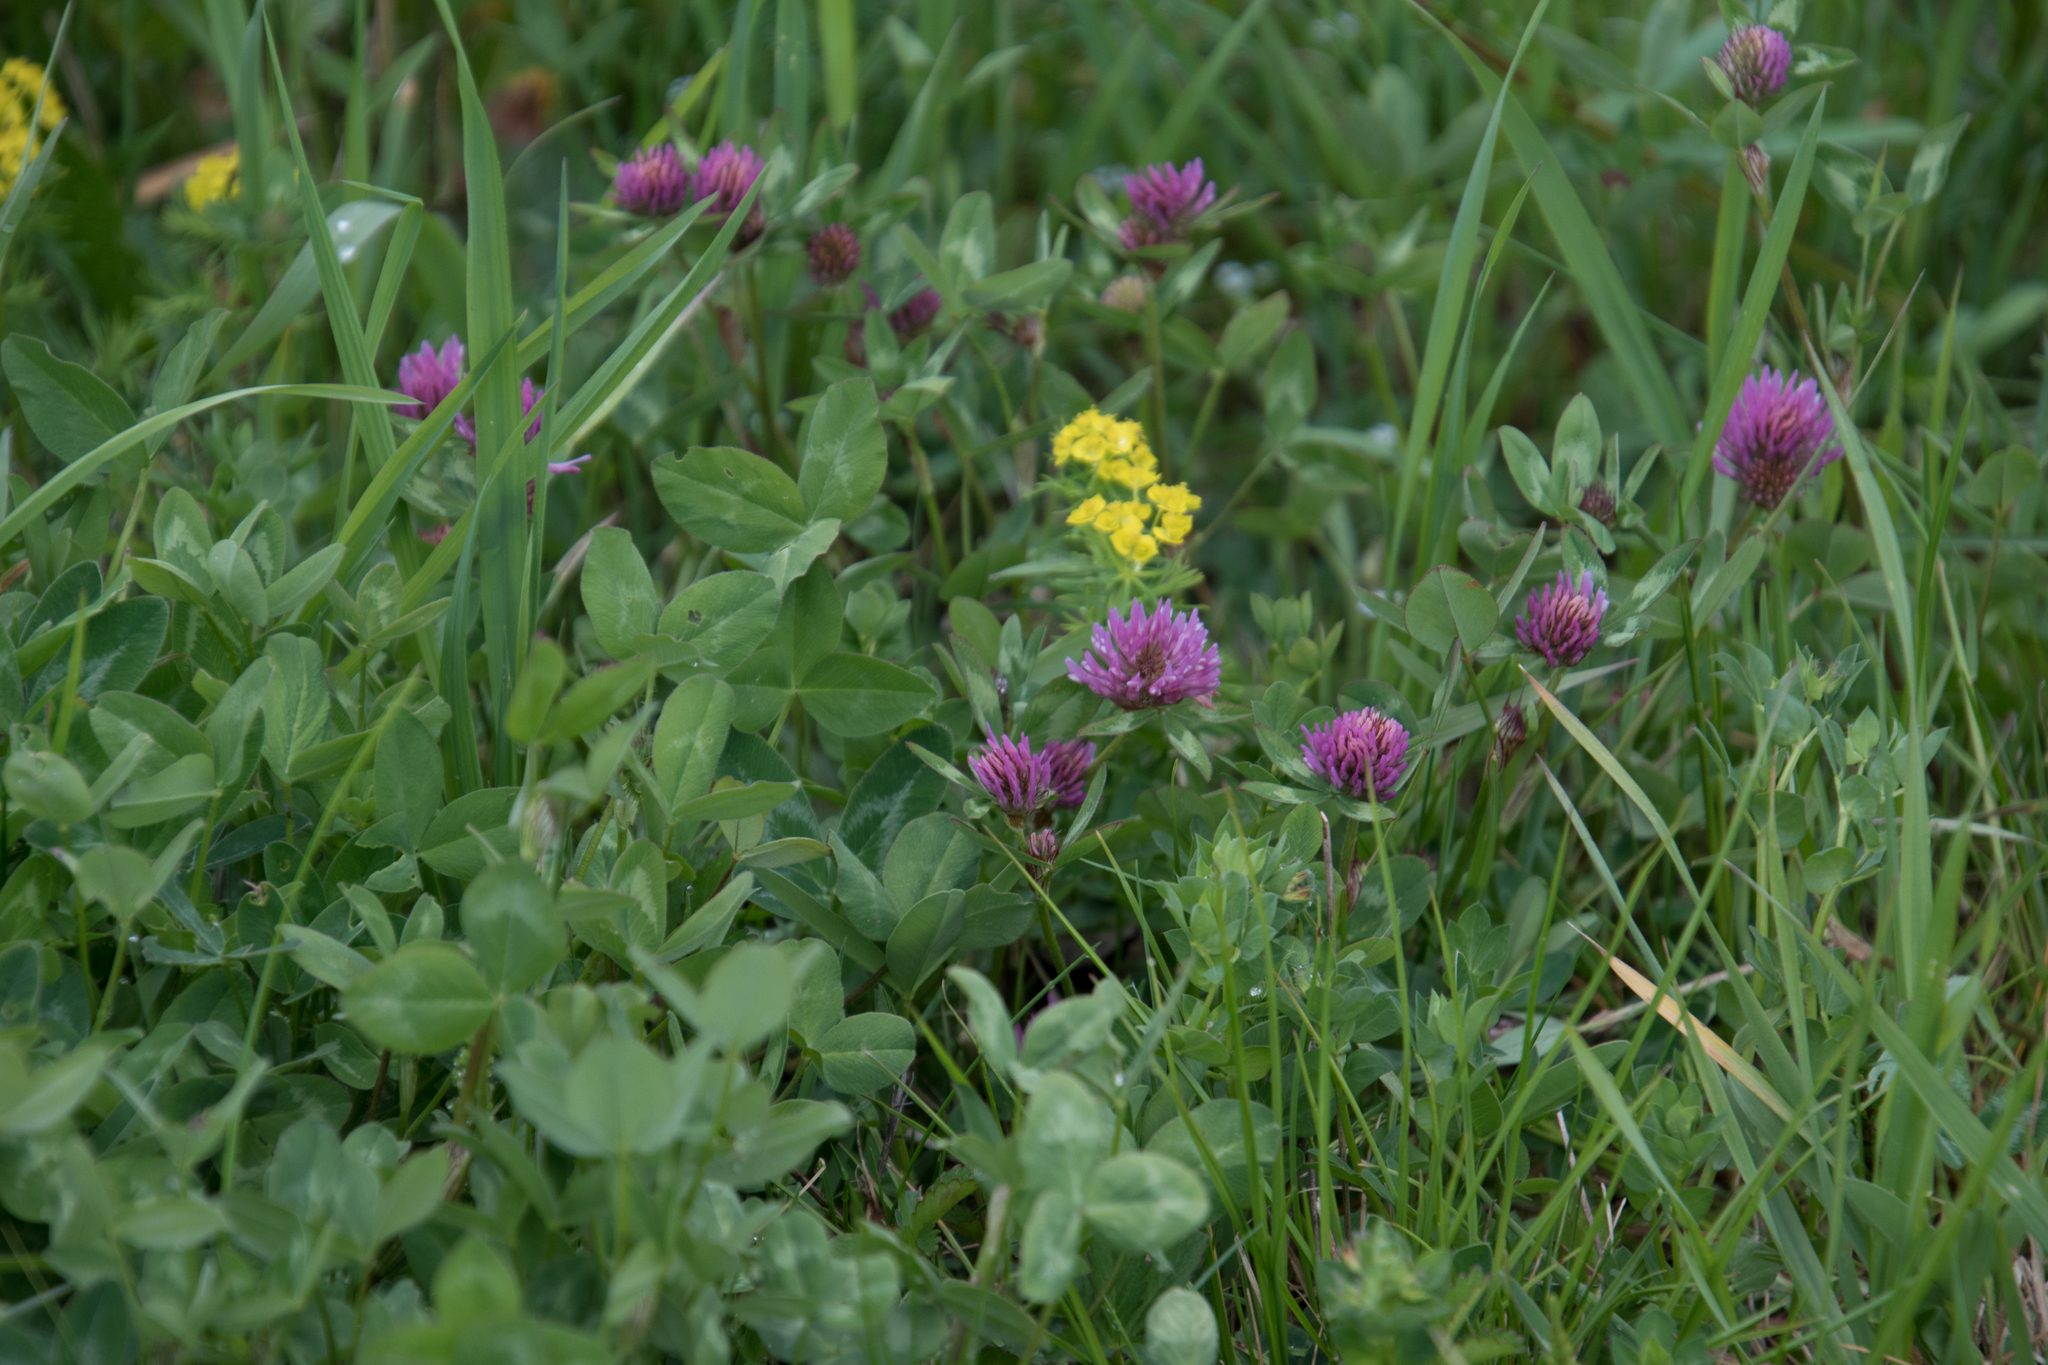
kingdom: Plantae
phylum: Tracheophyta
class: Magnoliopsida
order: Fabales
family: Fabaceae
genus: Trifolium
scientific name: Trifolium pratense
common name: Red clover
